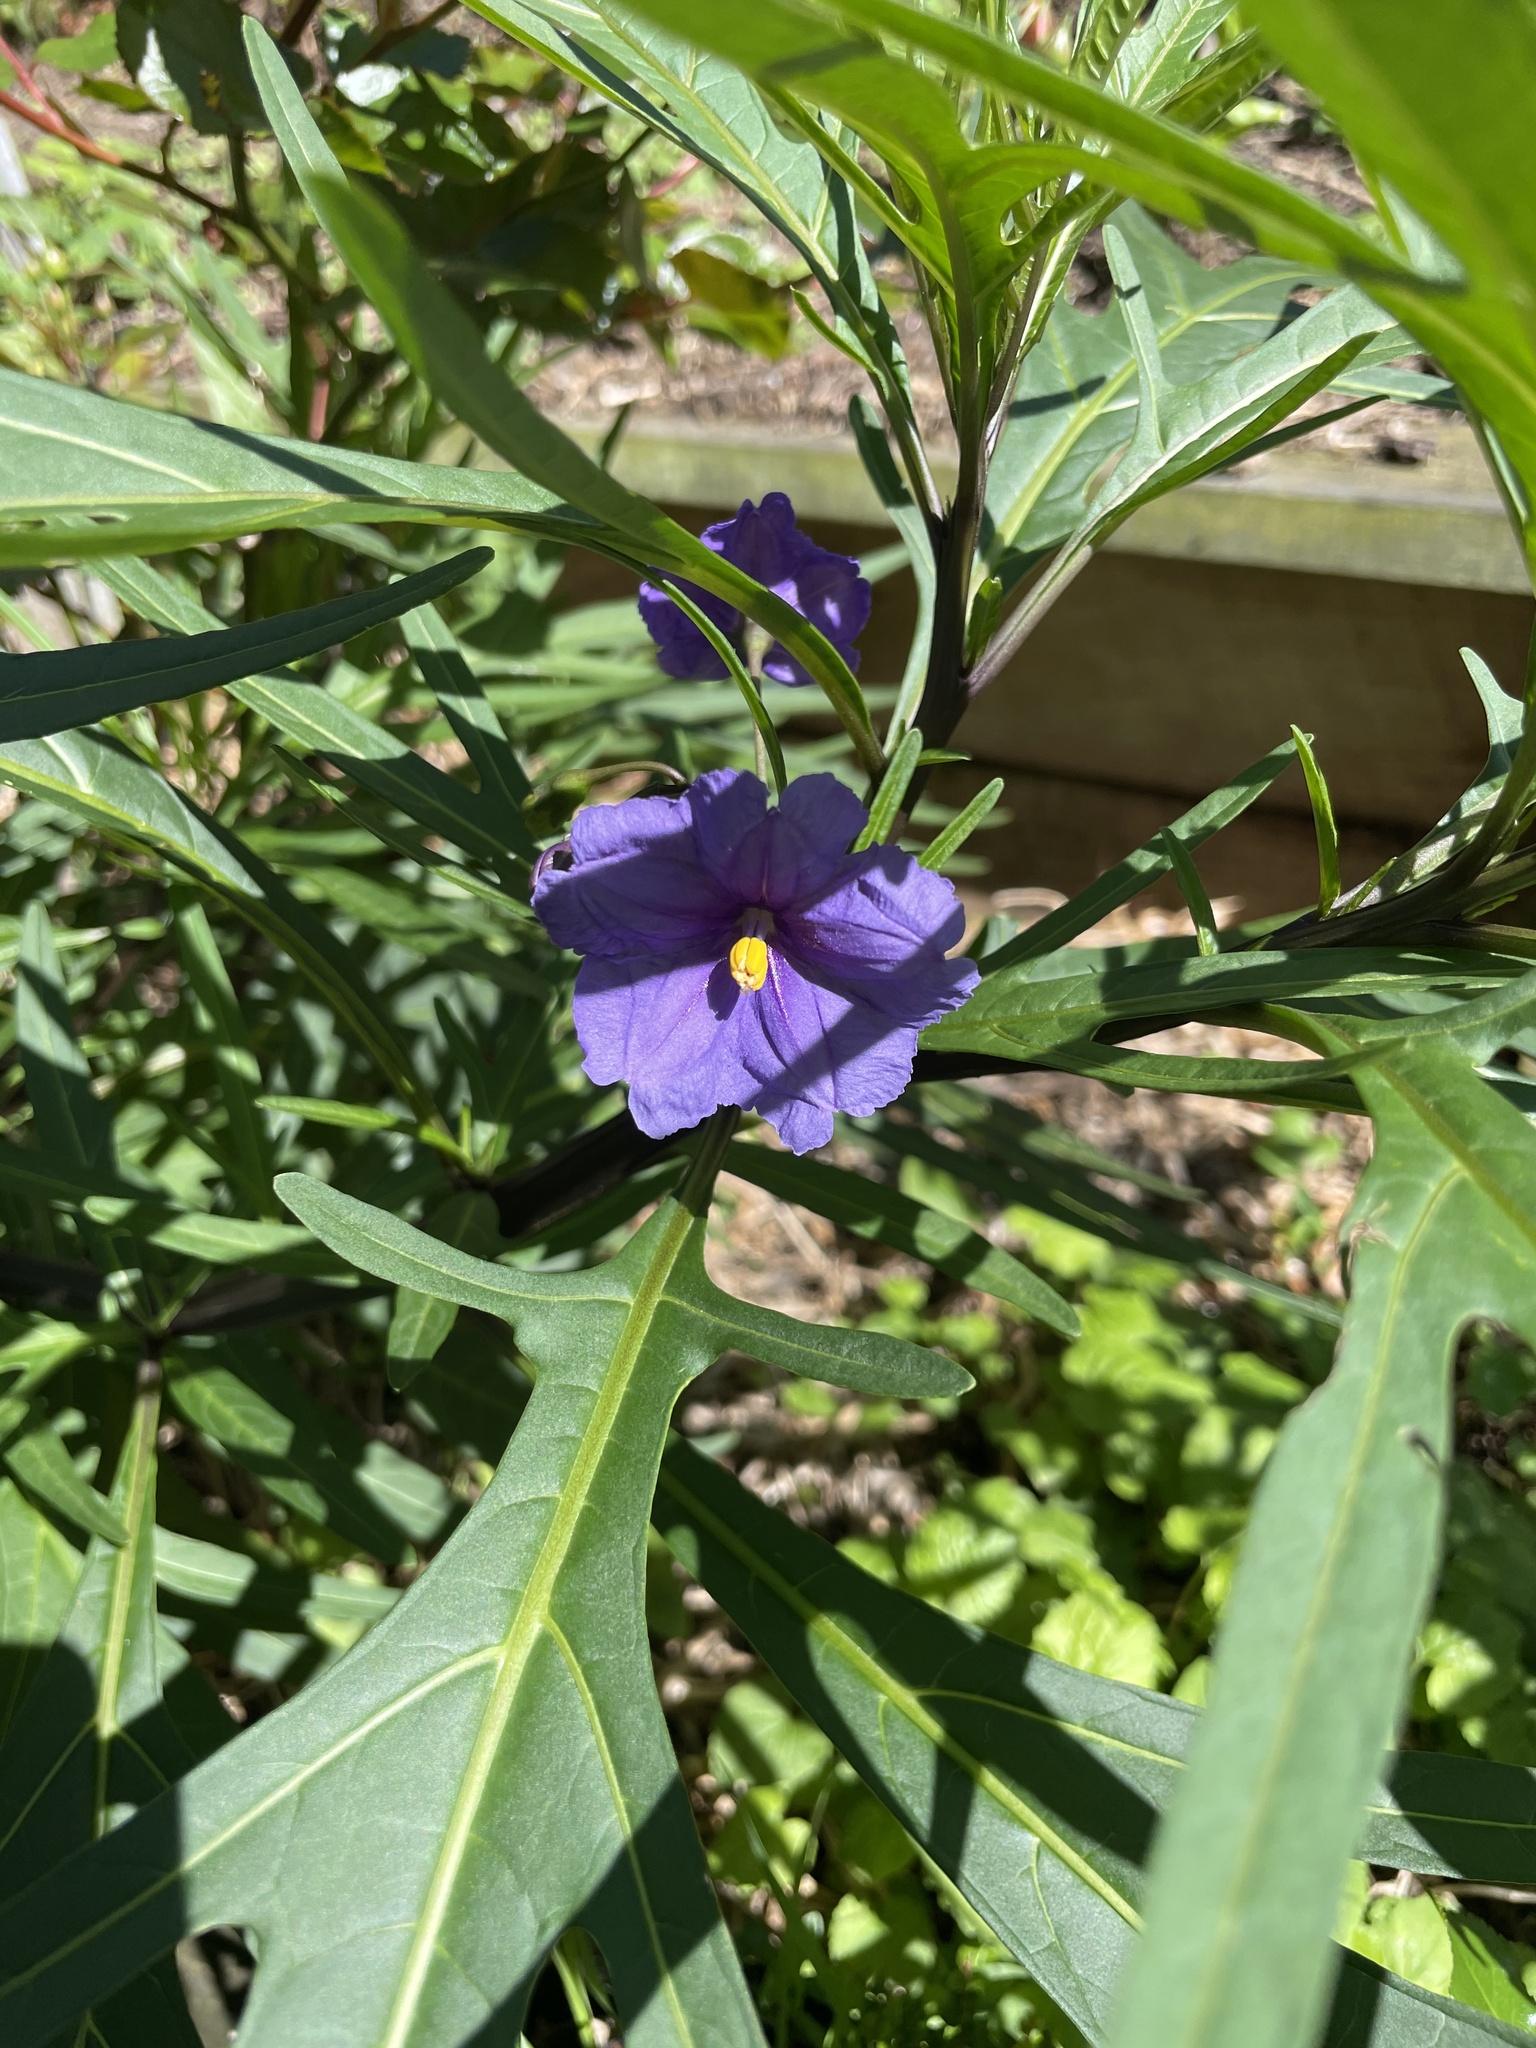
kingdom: Plantae
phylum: Tracheophyta
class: Magnoliopsida
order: Solanales
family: Solanaceae
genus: Solanum
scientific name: Solanum laciniatum
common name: Kangaroo-apple
